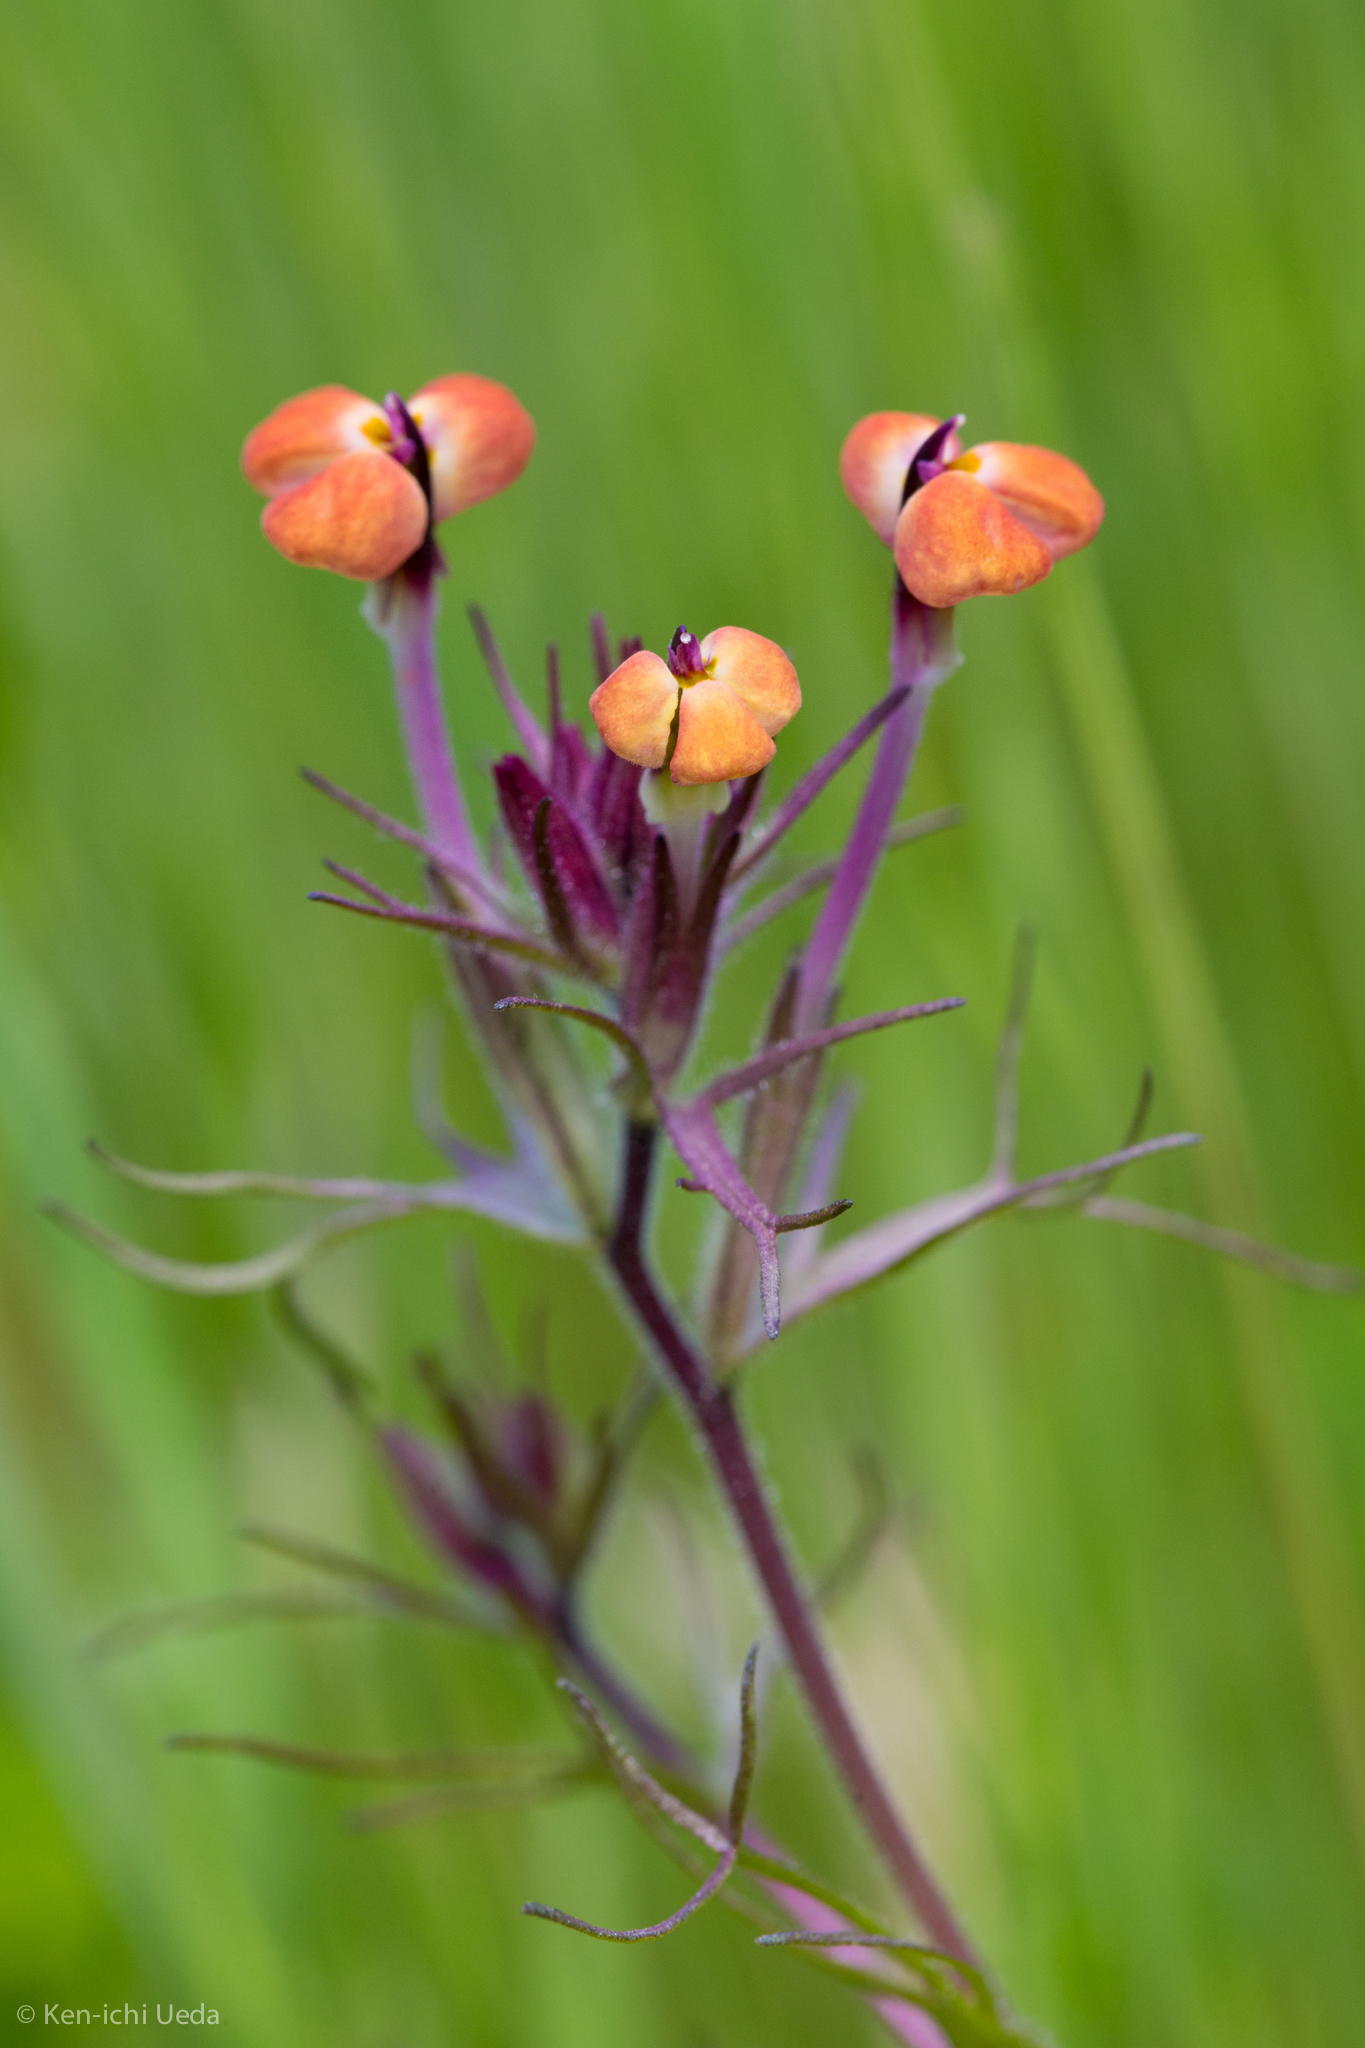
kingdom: Plantae
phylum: Tracheophyta
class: Magnoliopsida
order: Lamiales
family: Orobanchaceae
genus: Triphysaria
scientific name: Triphysaria eriantha
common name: Johnny-tuck
